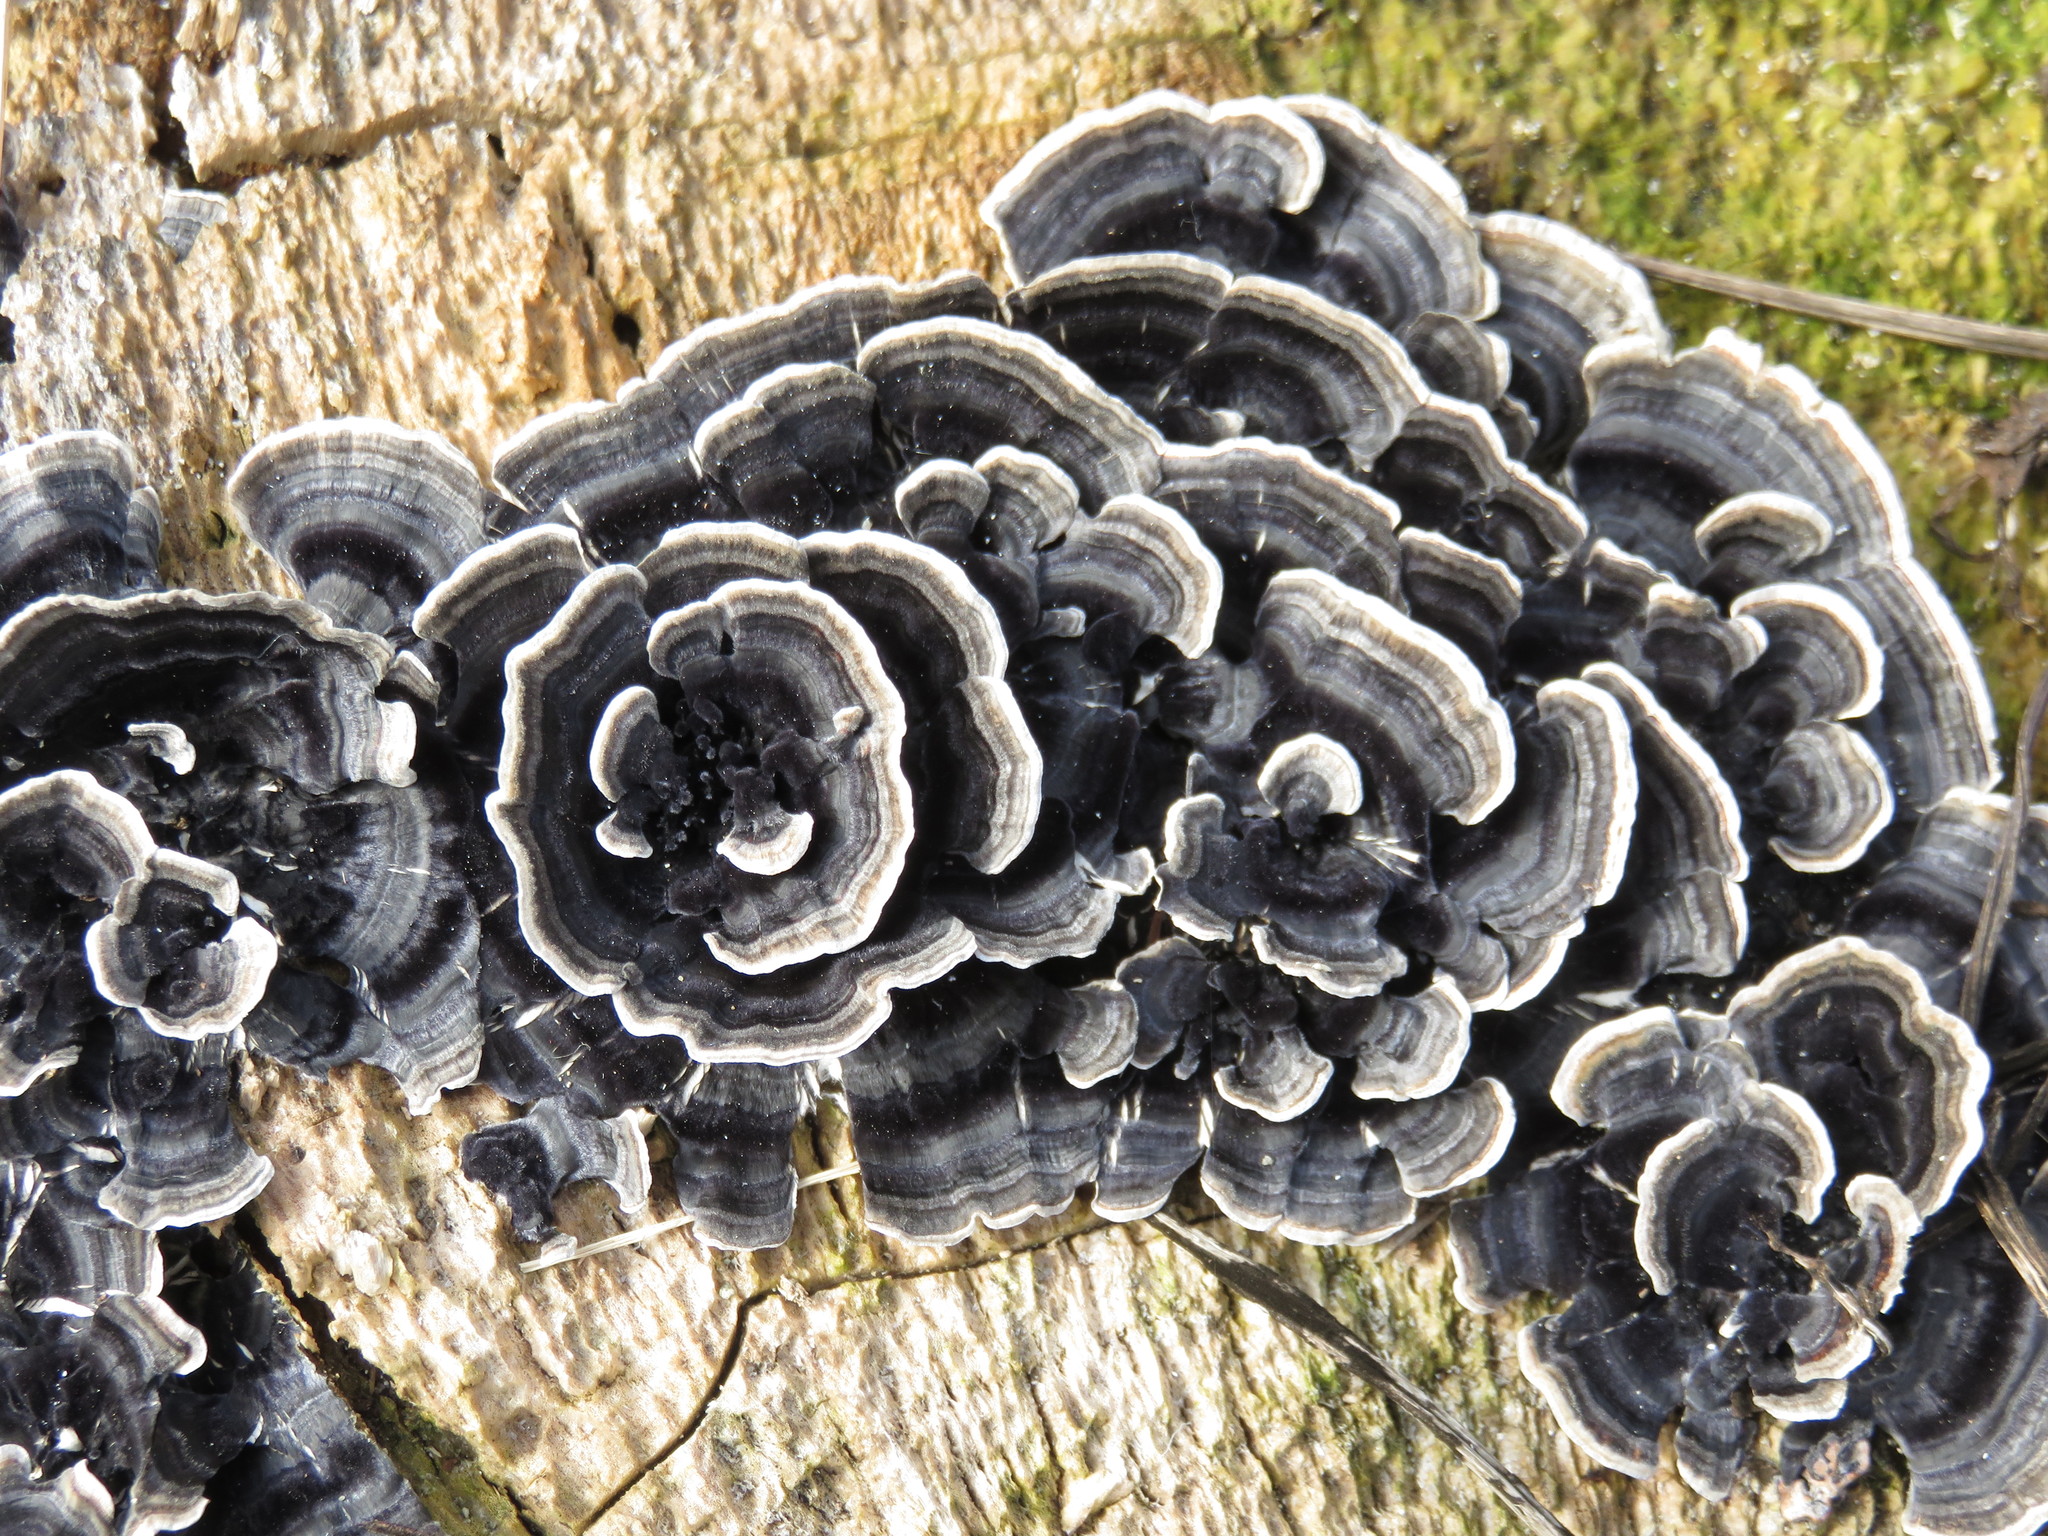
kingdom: Fungi
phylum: Basidiomycota
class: Agaricomycetes
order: Polyporales
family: Polyporaceae
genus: Trametes
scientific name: Trametes versicolor
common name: Turkeytail
